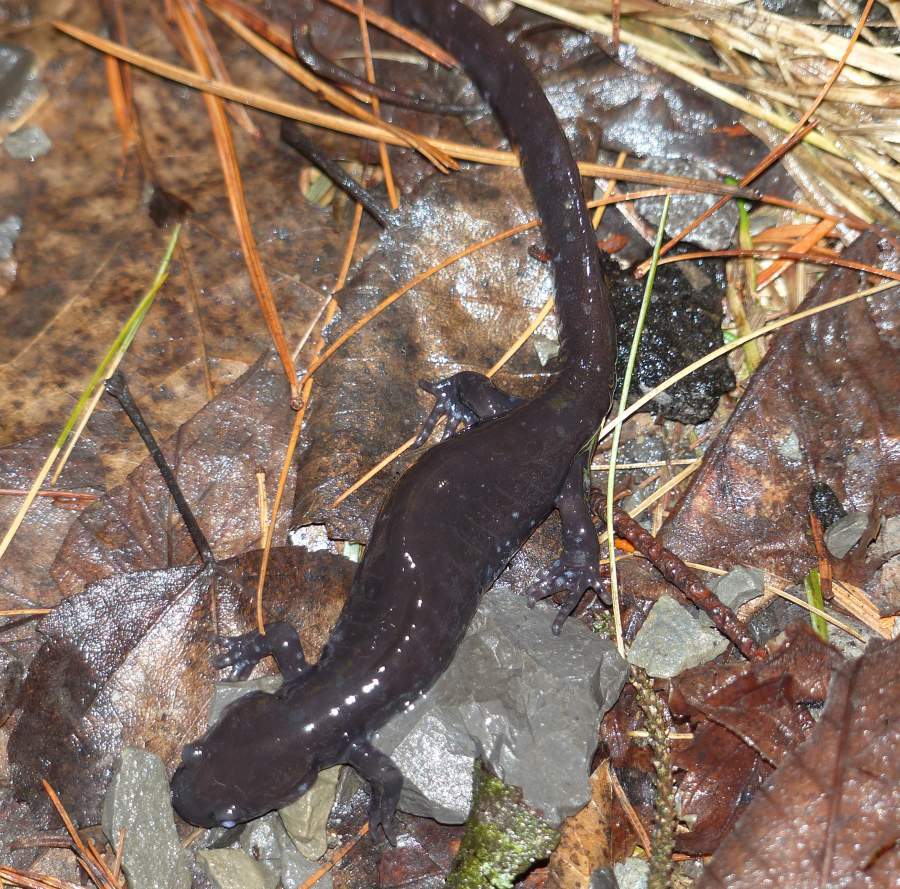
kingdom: Animalia
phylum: Chordata
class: Amphibia
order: Caudata
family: Ambystomatidae
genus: Ambystoma
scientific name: Ambystoma laterale
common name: Blue-spotted salamander
